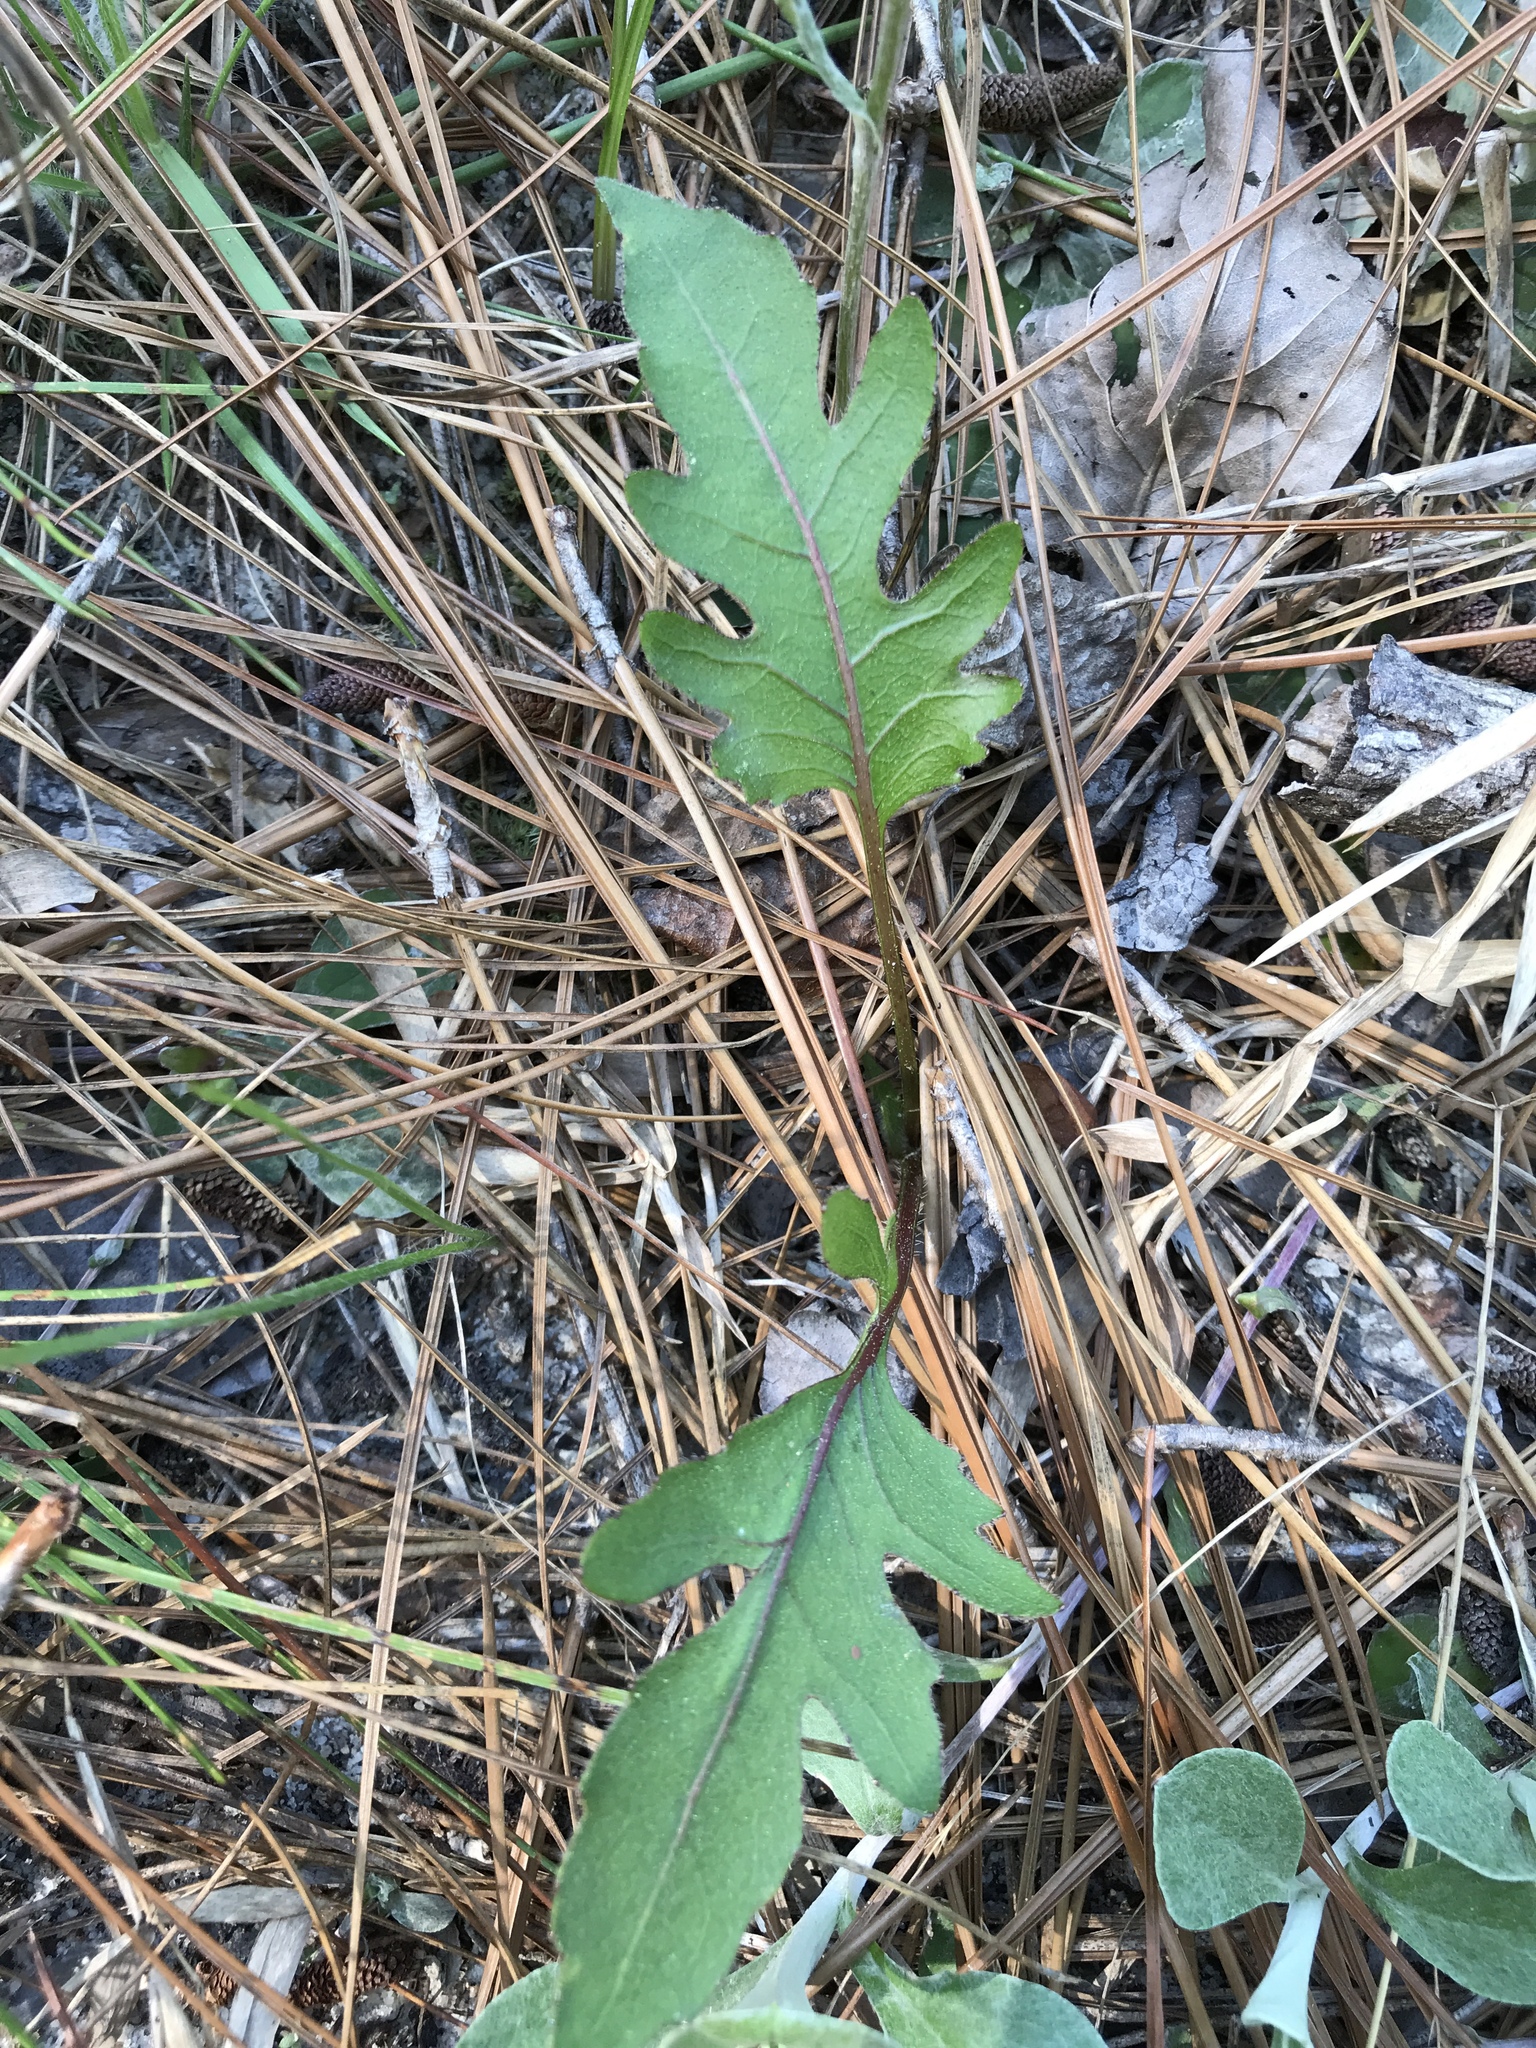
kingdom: Plantae
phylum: Tracheophyta
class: Magnoliopsida
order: Asterales
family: Asteraceae
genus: Silphium
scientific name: Silphium compositum
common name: Lesser basal-leaf rosinweed
